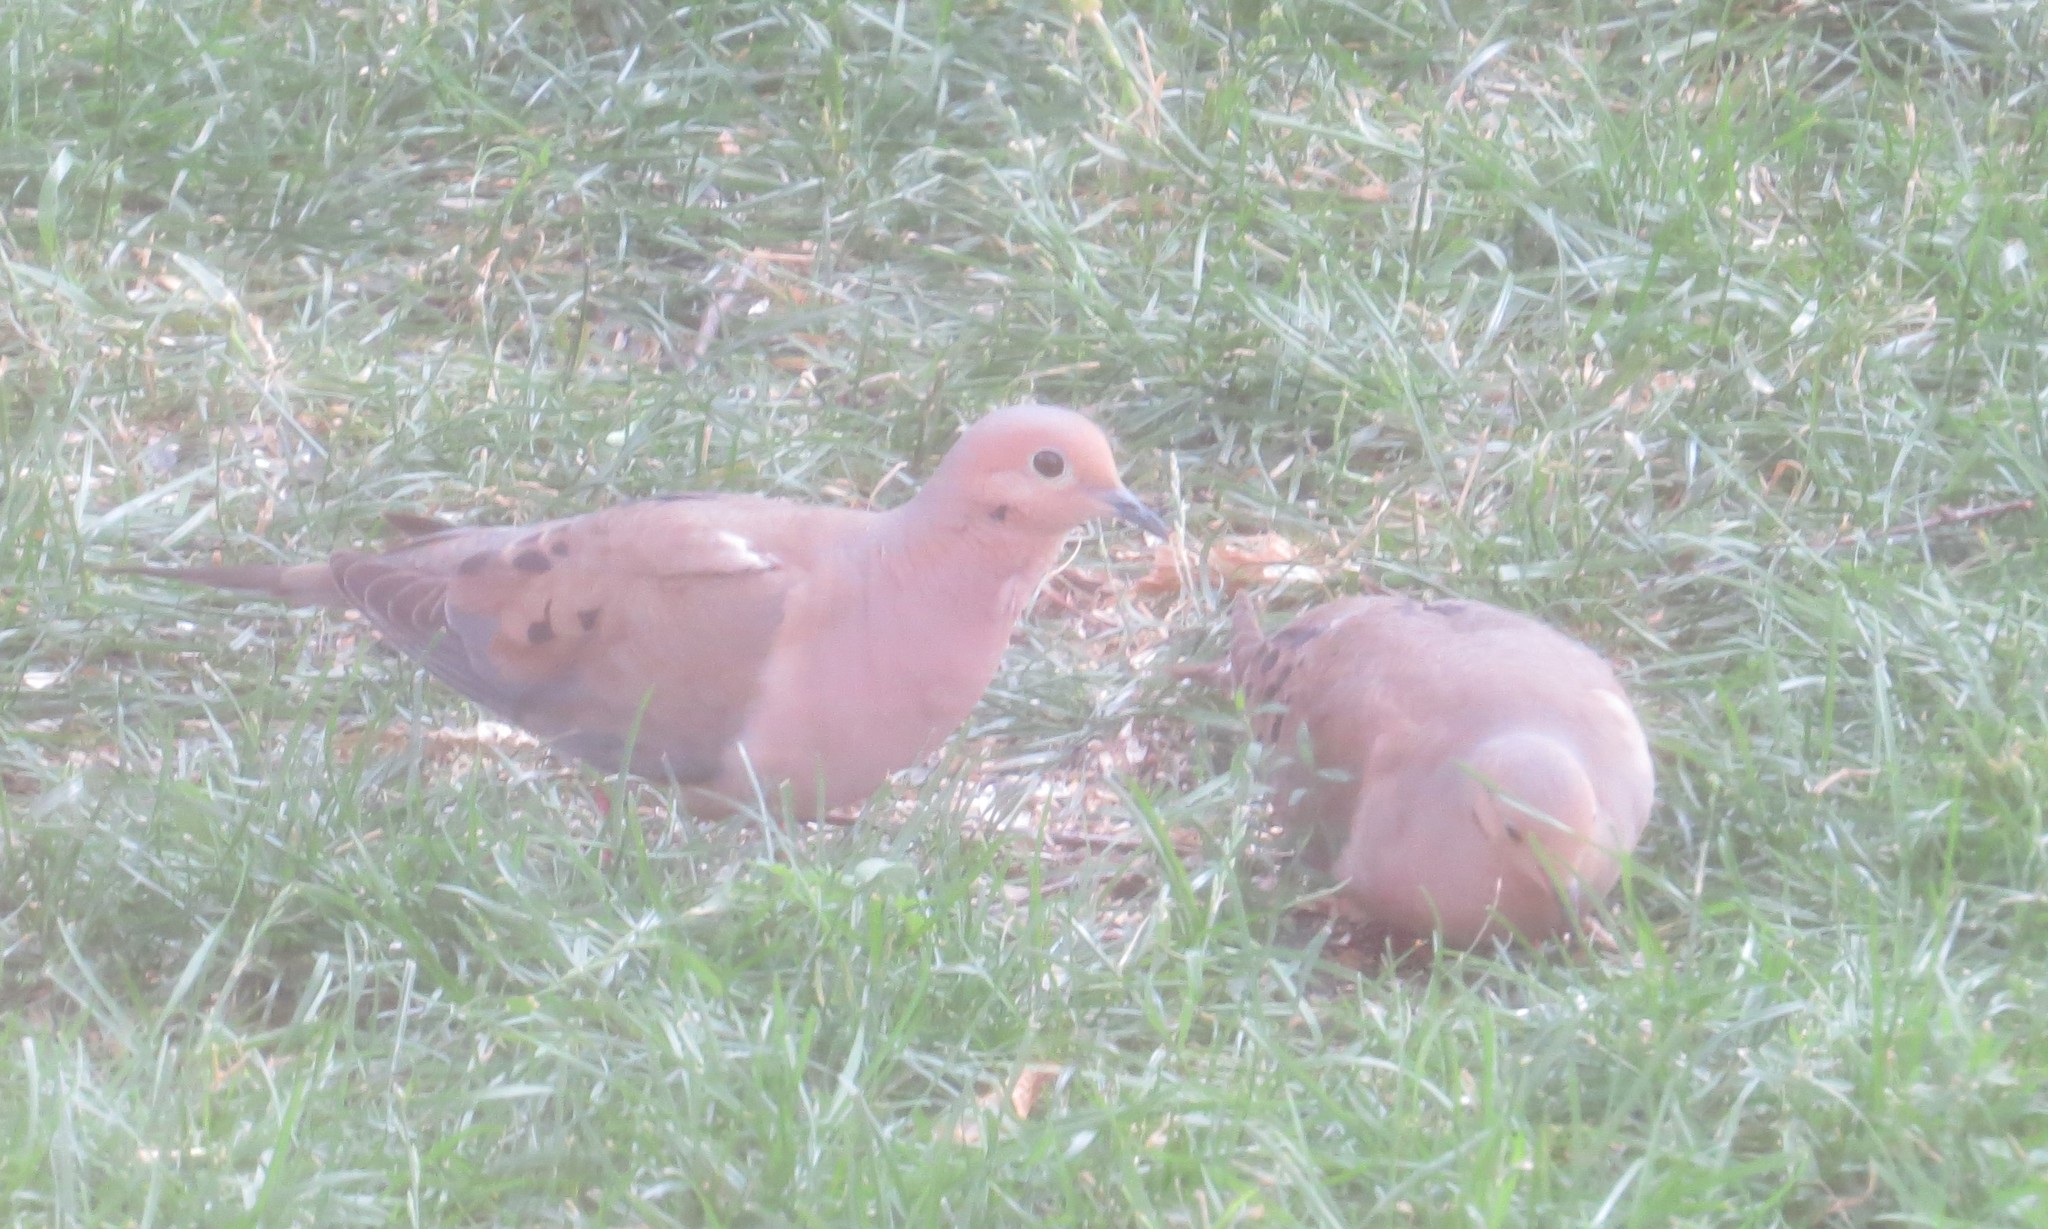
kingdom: Animalia
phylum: Chordata
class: Aves
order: Columbiformes
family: Columbidae
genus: Zenaida
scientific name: Zenaida macroura
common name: Mourning dove
